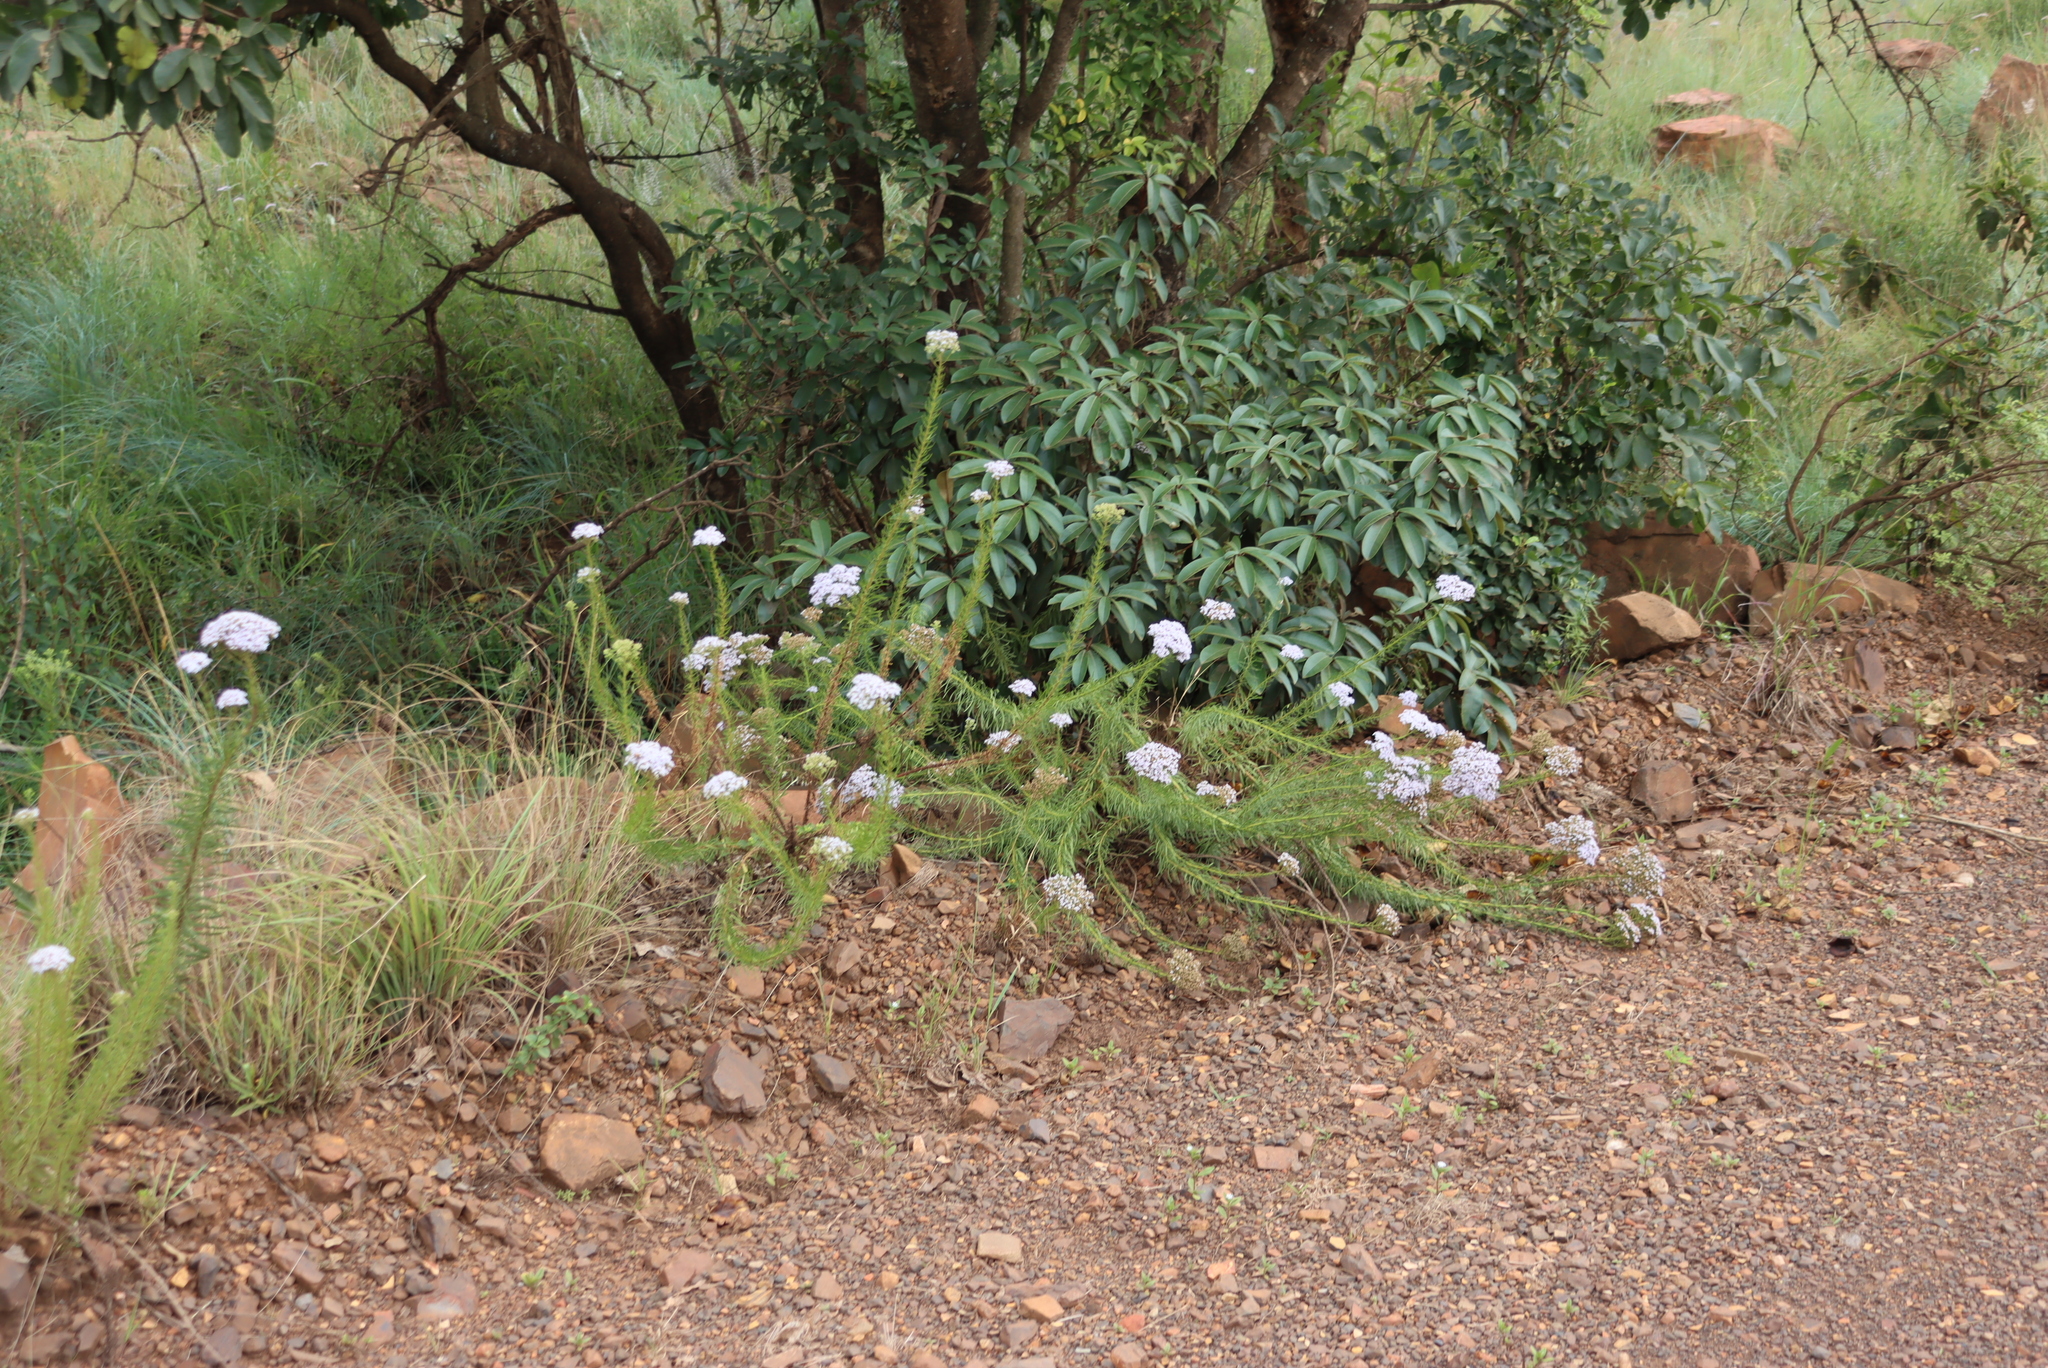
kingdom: Plantae
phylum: Tracheophyta
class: Magnoliopsida
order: Lamiales
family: Scrophulariaceae
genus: Tetraselago
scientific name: Tetraselago natalensis
